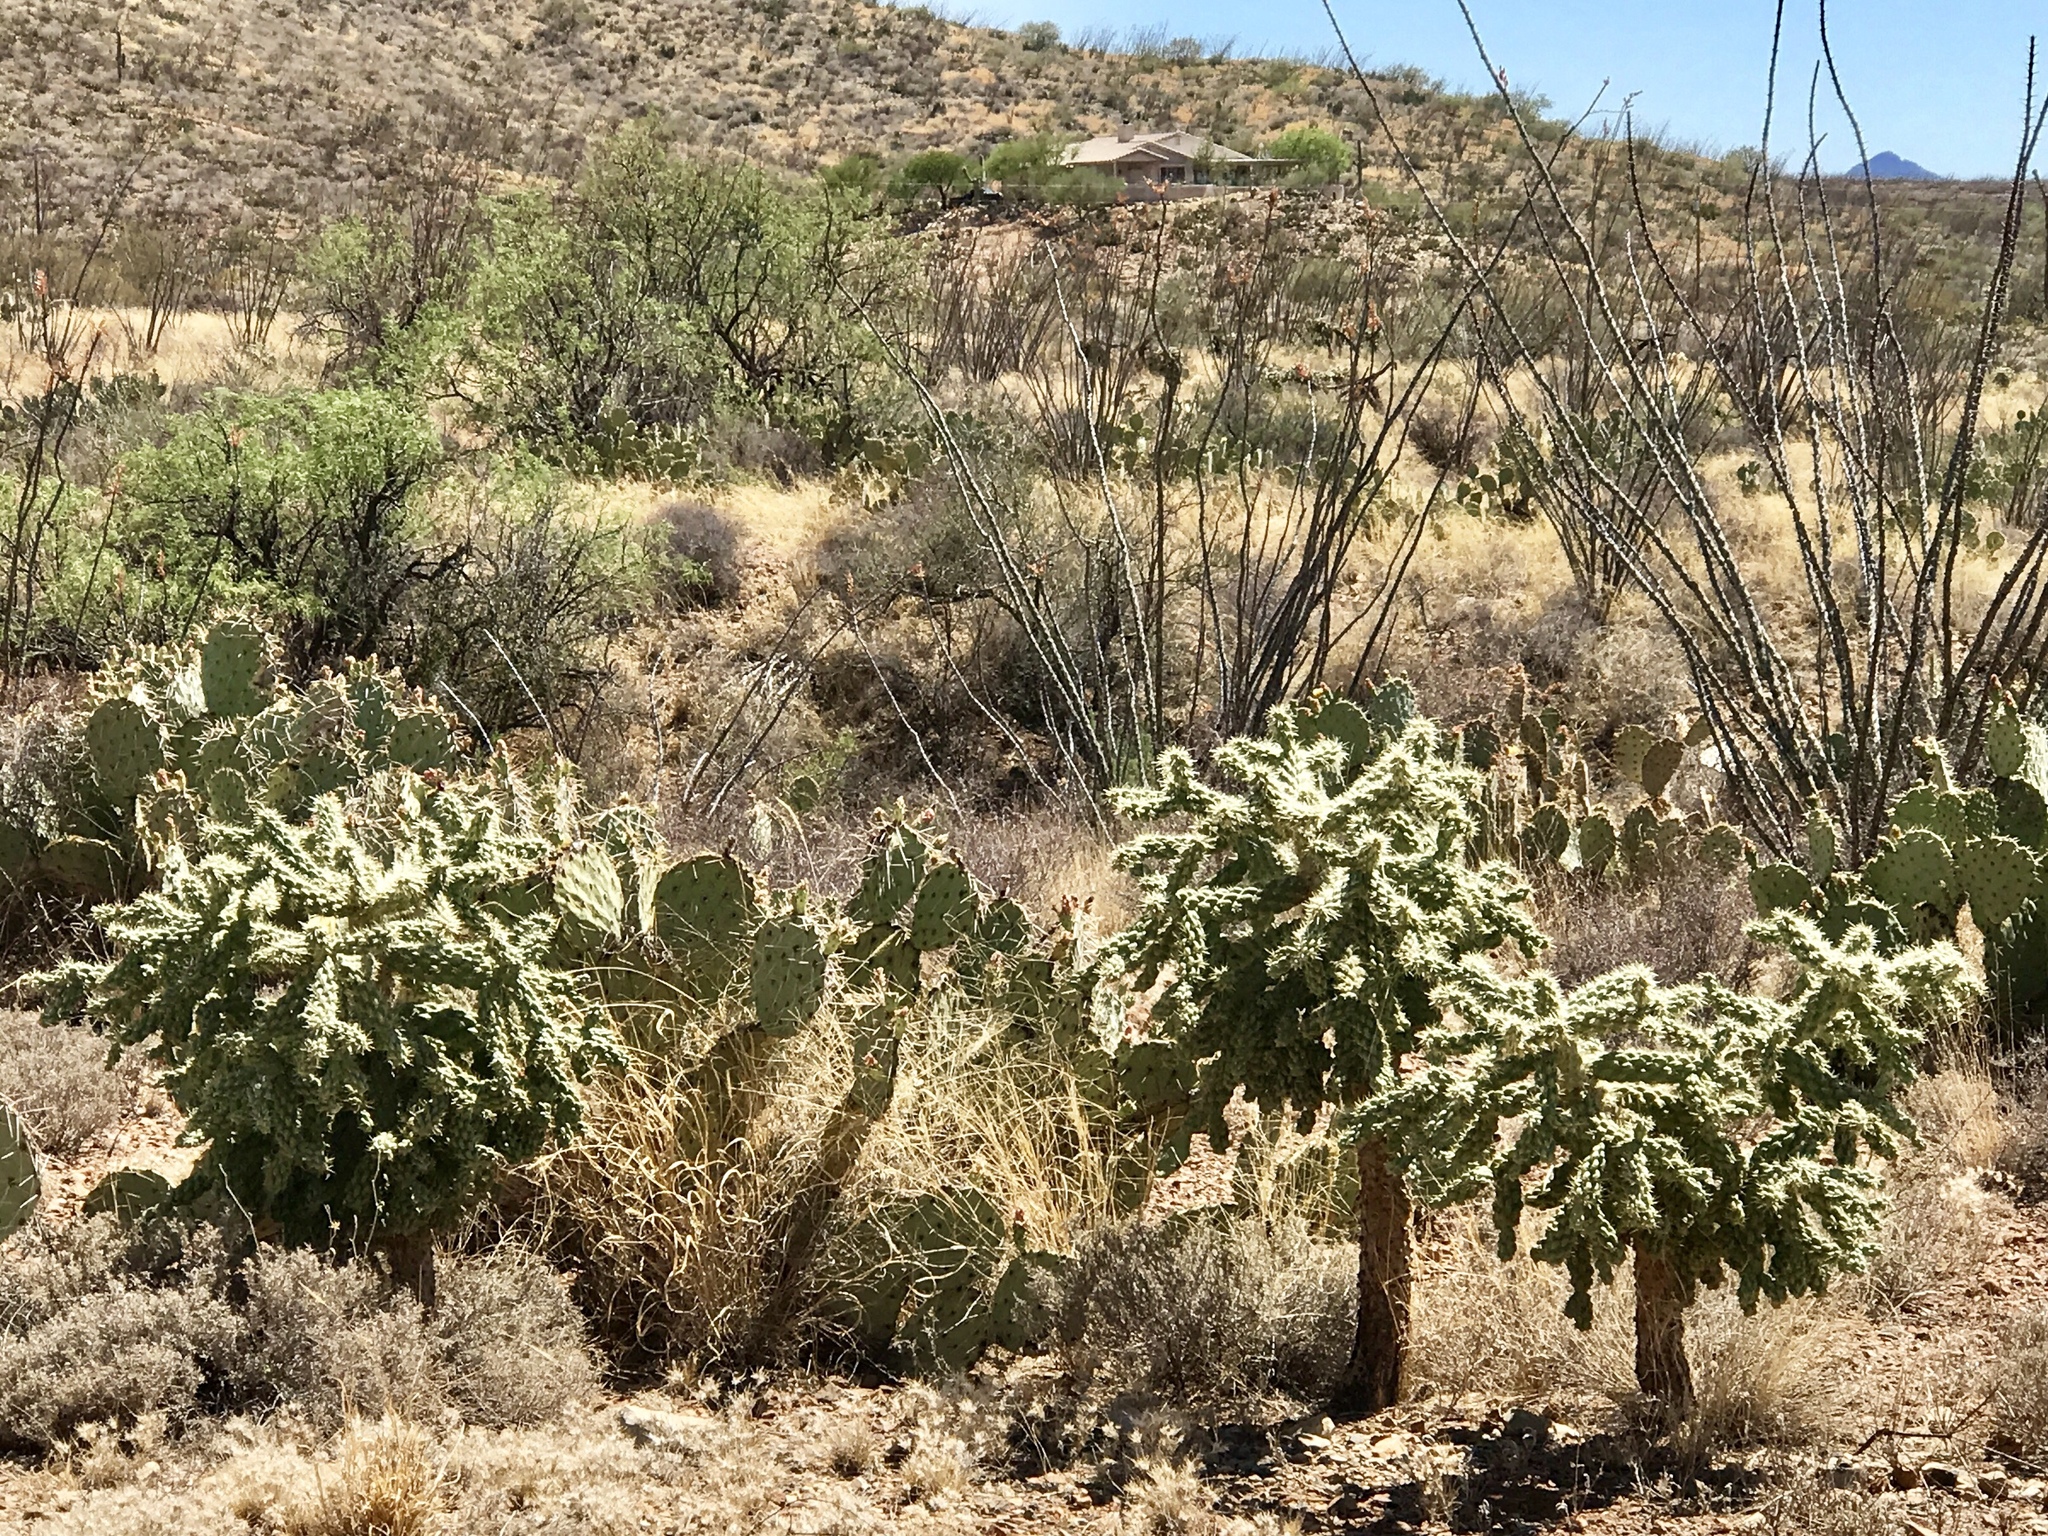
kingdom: Plantae
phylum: Tracheophyta
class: Magnoliopsida
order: Caryophyllales
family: Cactaceae
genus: Cylindropuntia
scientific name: Cylindropuntia fulgida
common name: Jumping cholla
